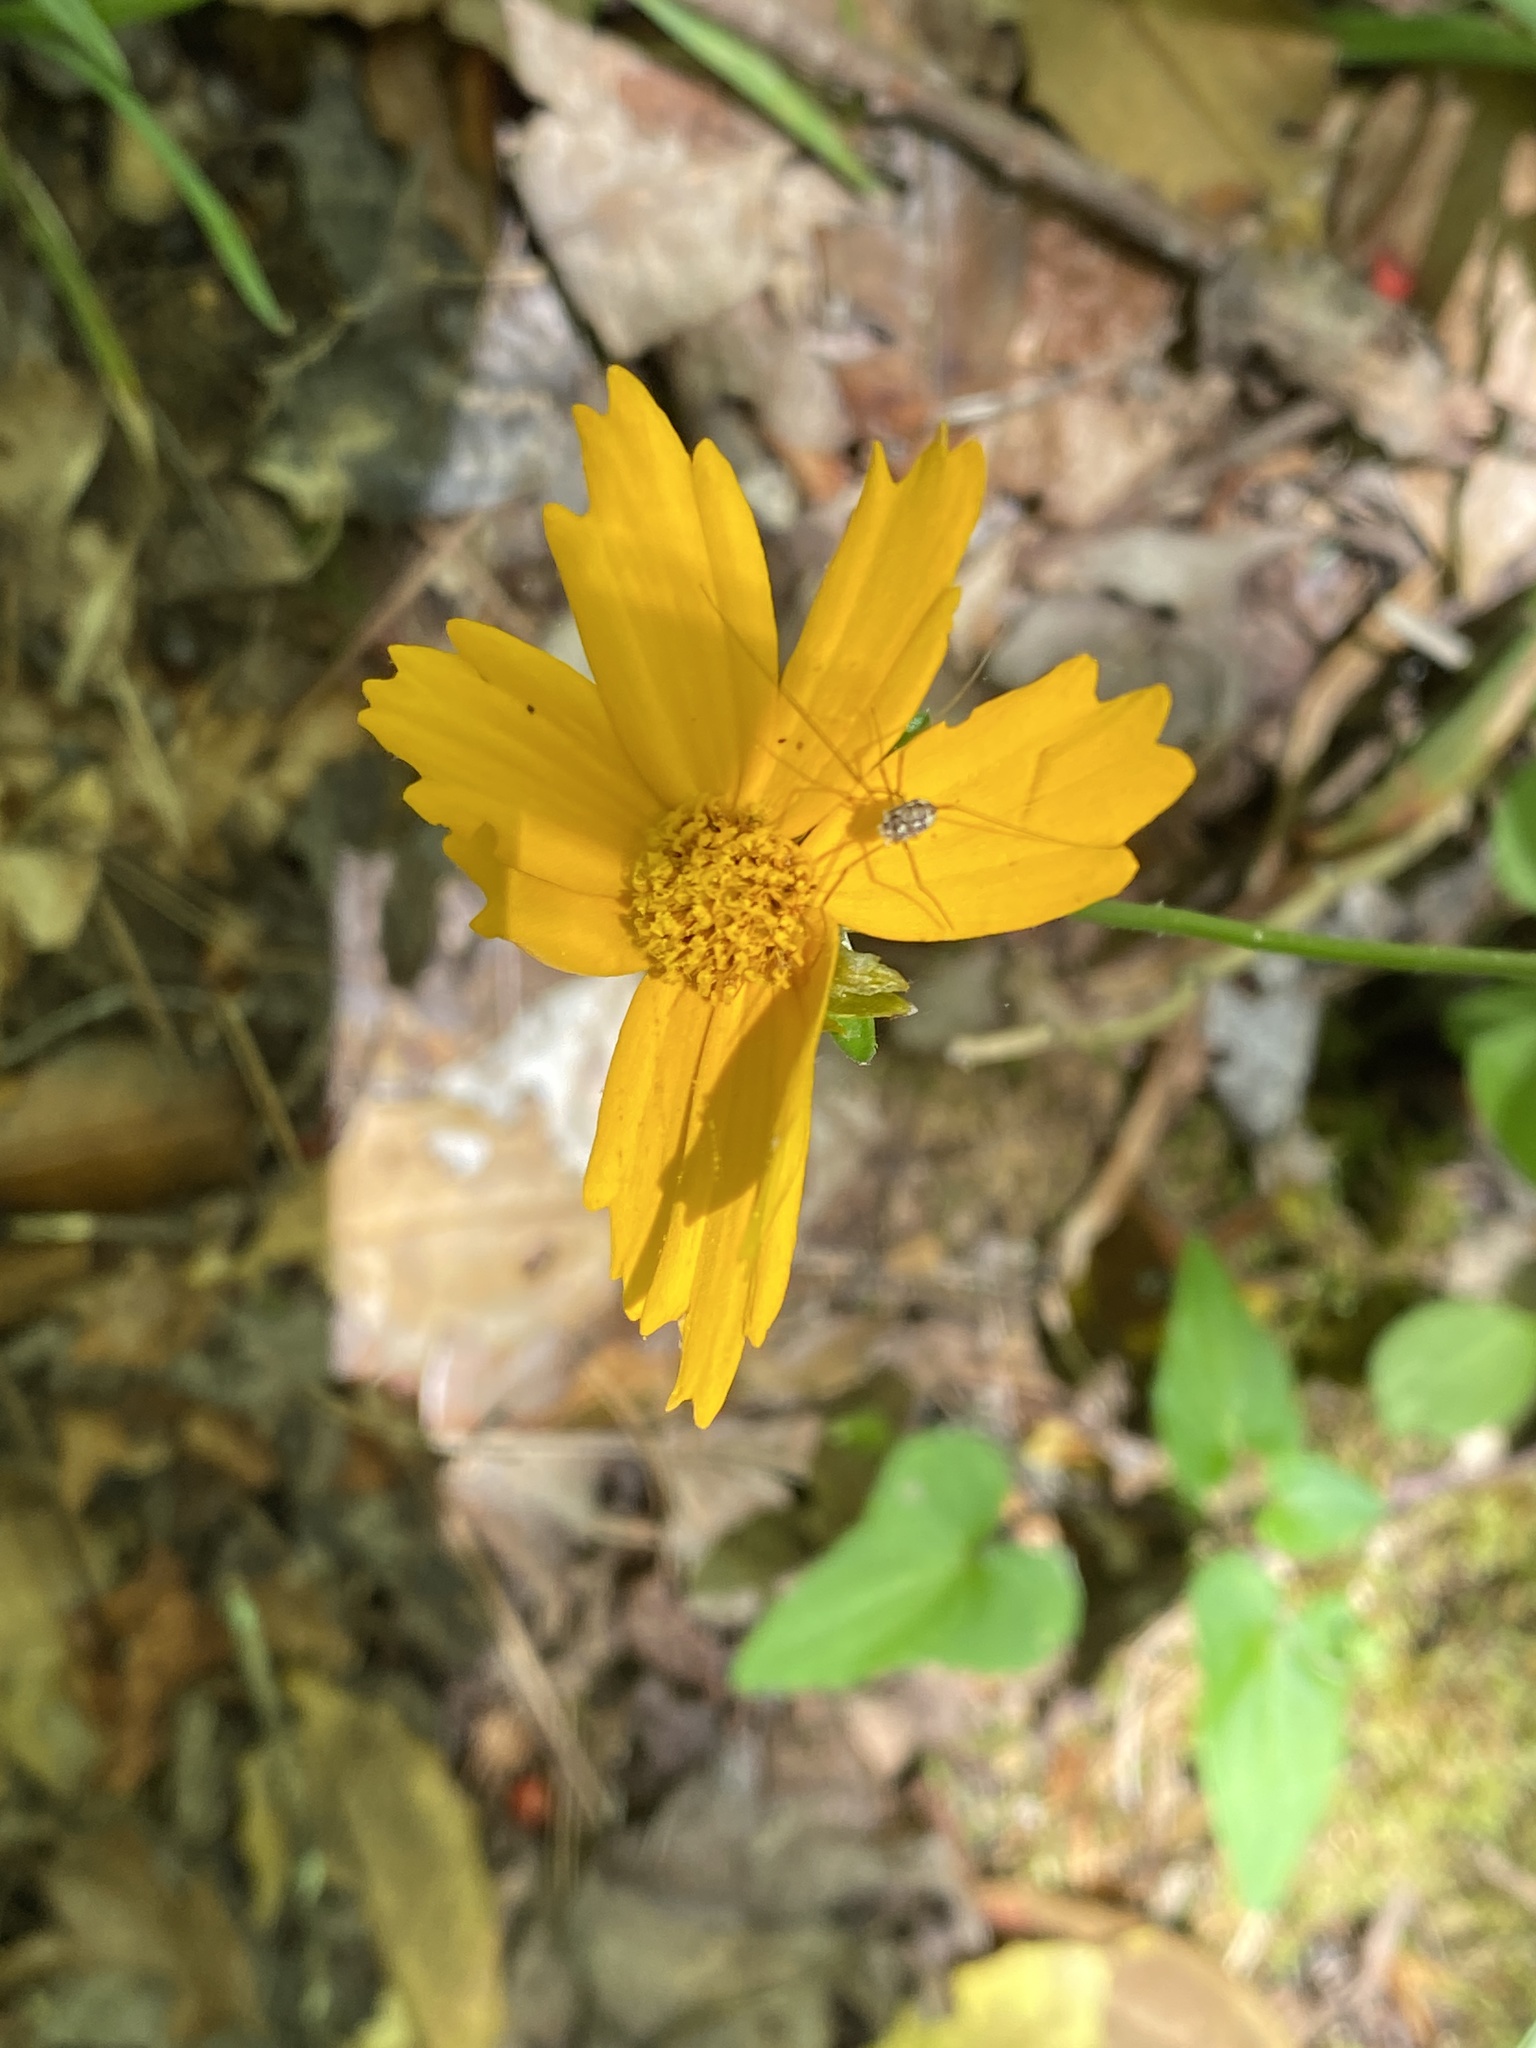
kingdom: Plantae
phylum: Tracheophyta
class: Magnoliopsida
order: Asterales
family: Asteraceae
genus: Coreopsis
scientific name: Coreopsis auriculata
